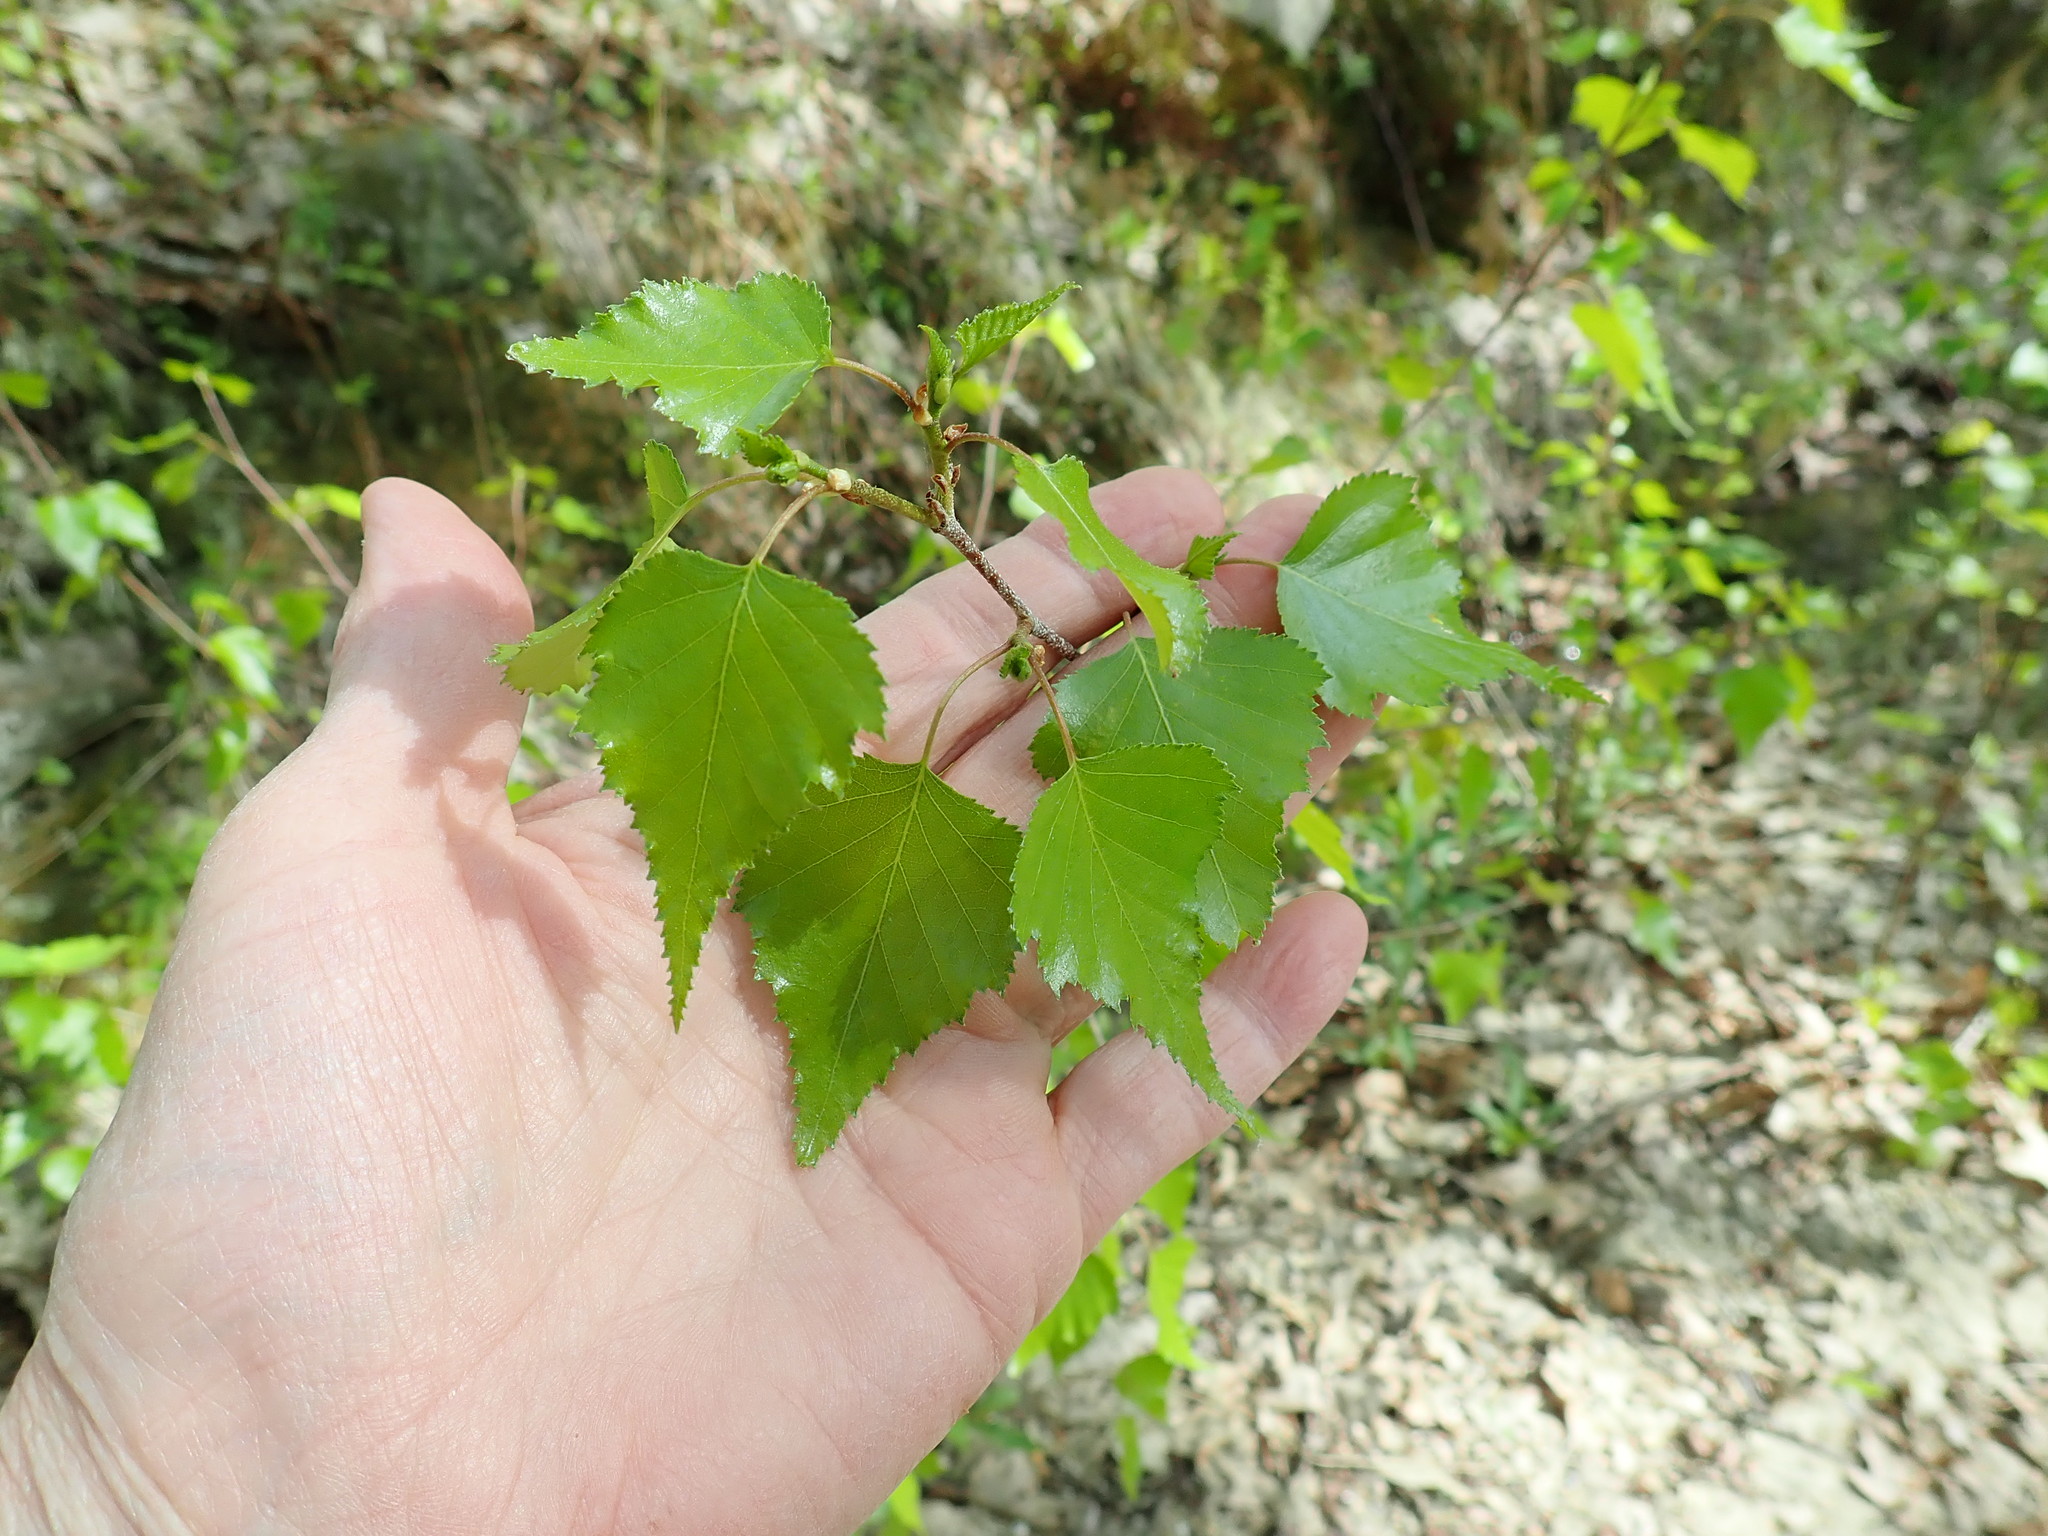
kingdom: Plantae
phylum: Tracheophyta
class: Magnoliopsida
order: Fagales
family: Betulaceae
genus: Betula
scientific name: Betula populifolia
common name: Fire birch
